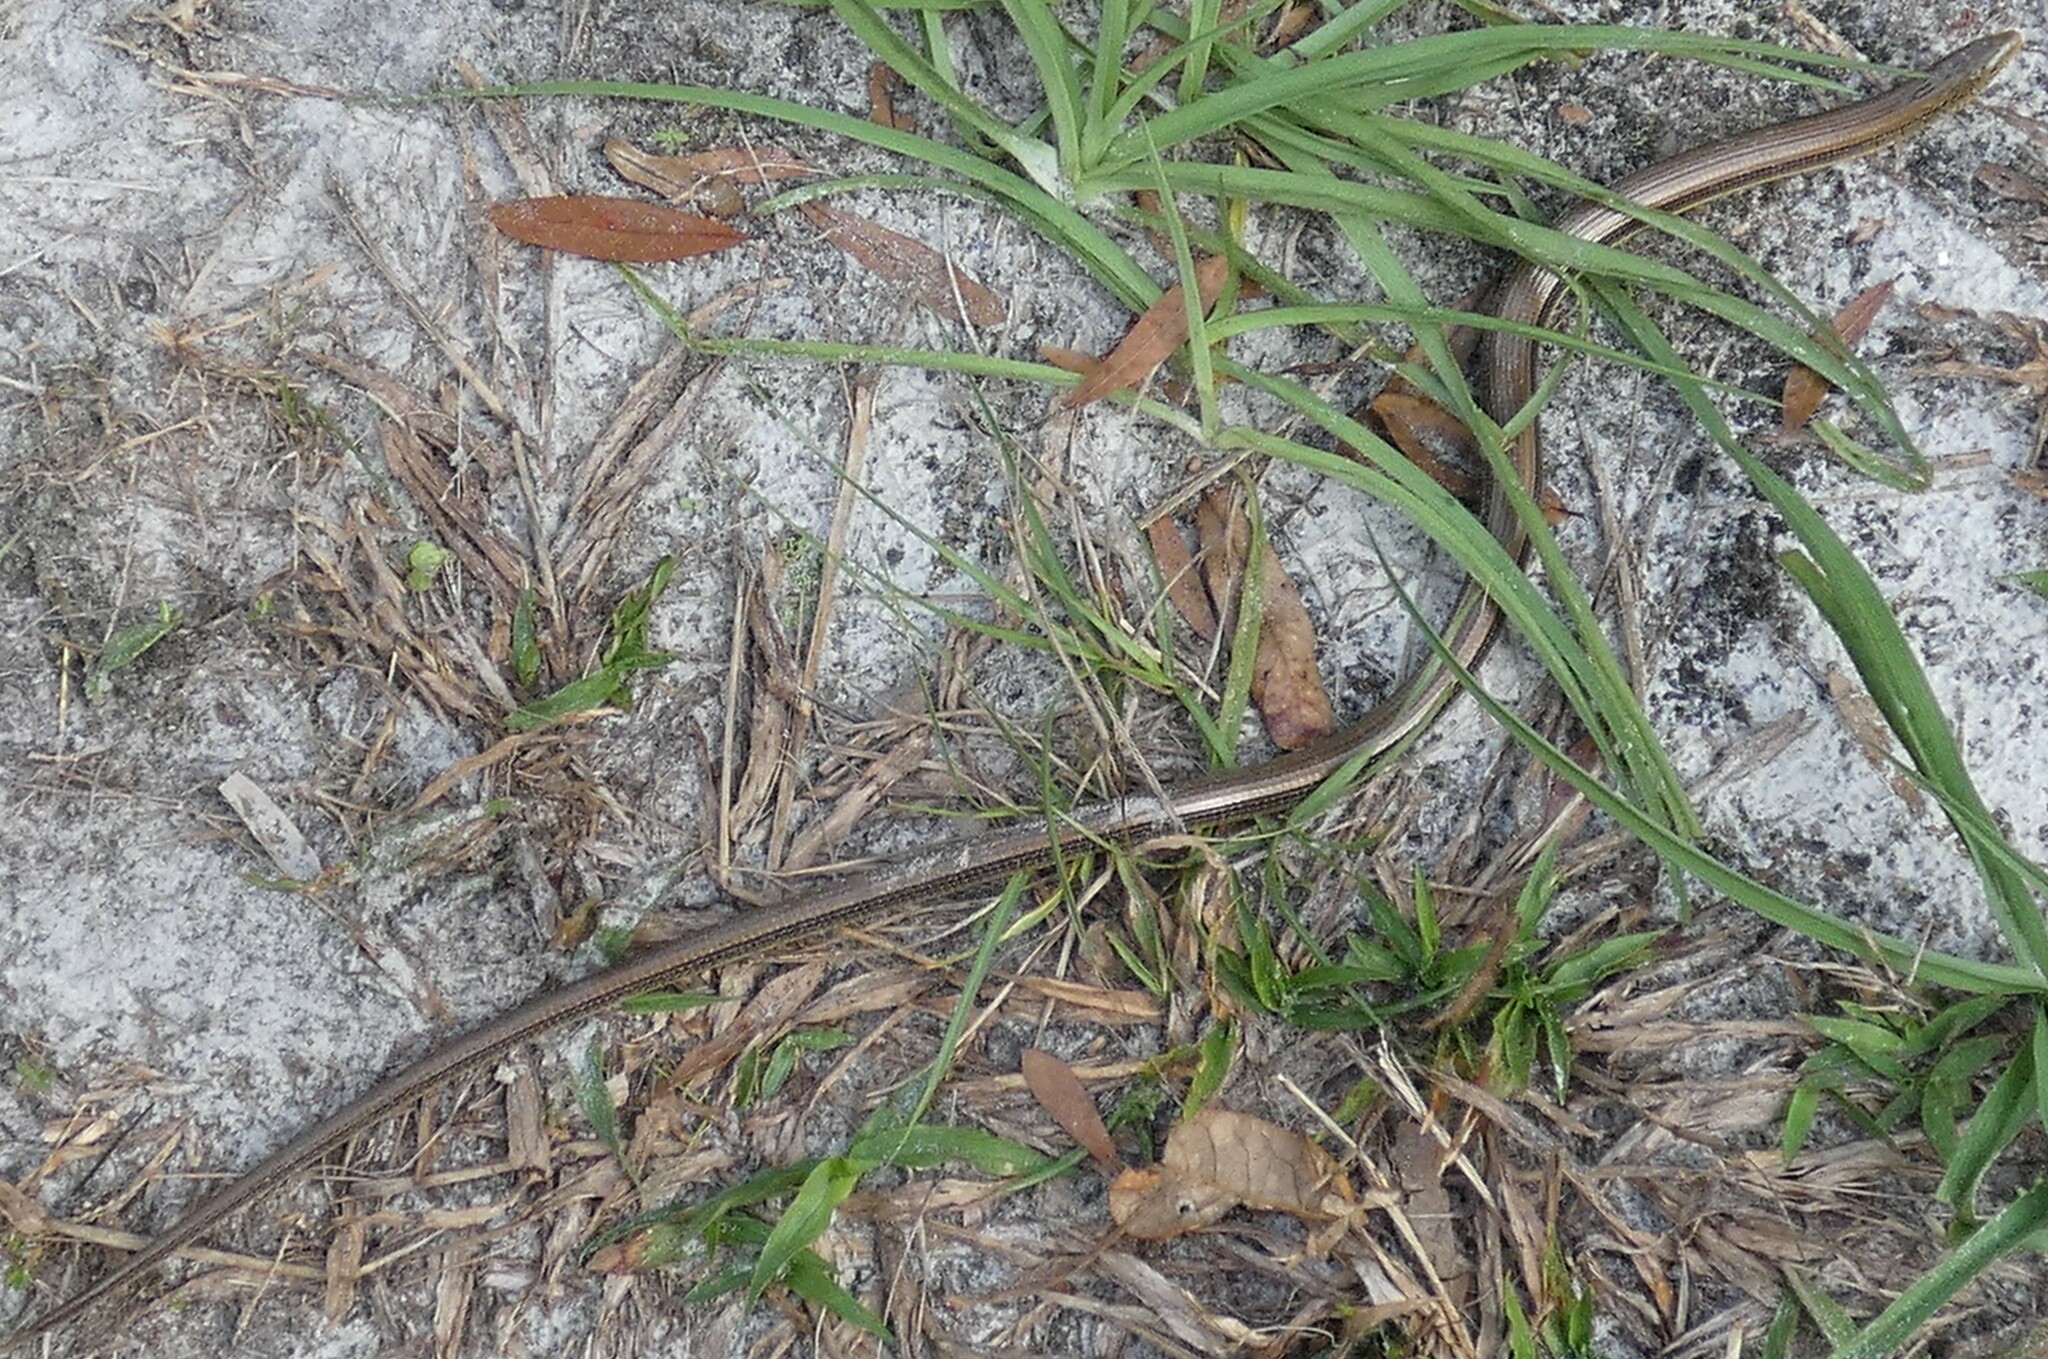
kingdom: Animalia
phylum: Chordata
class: Squamata
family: Anguidae
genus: Ophisaurus
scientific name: Ophisaurus ventralis
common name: Eastern glass lizard
